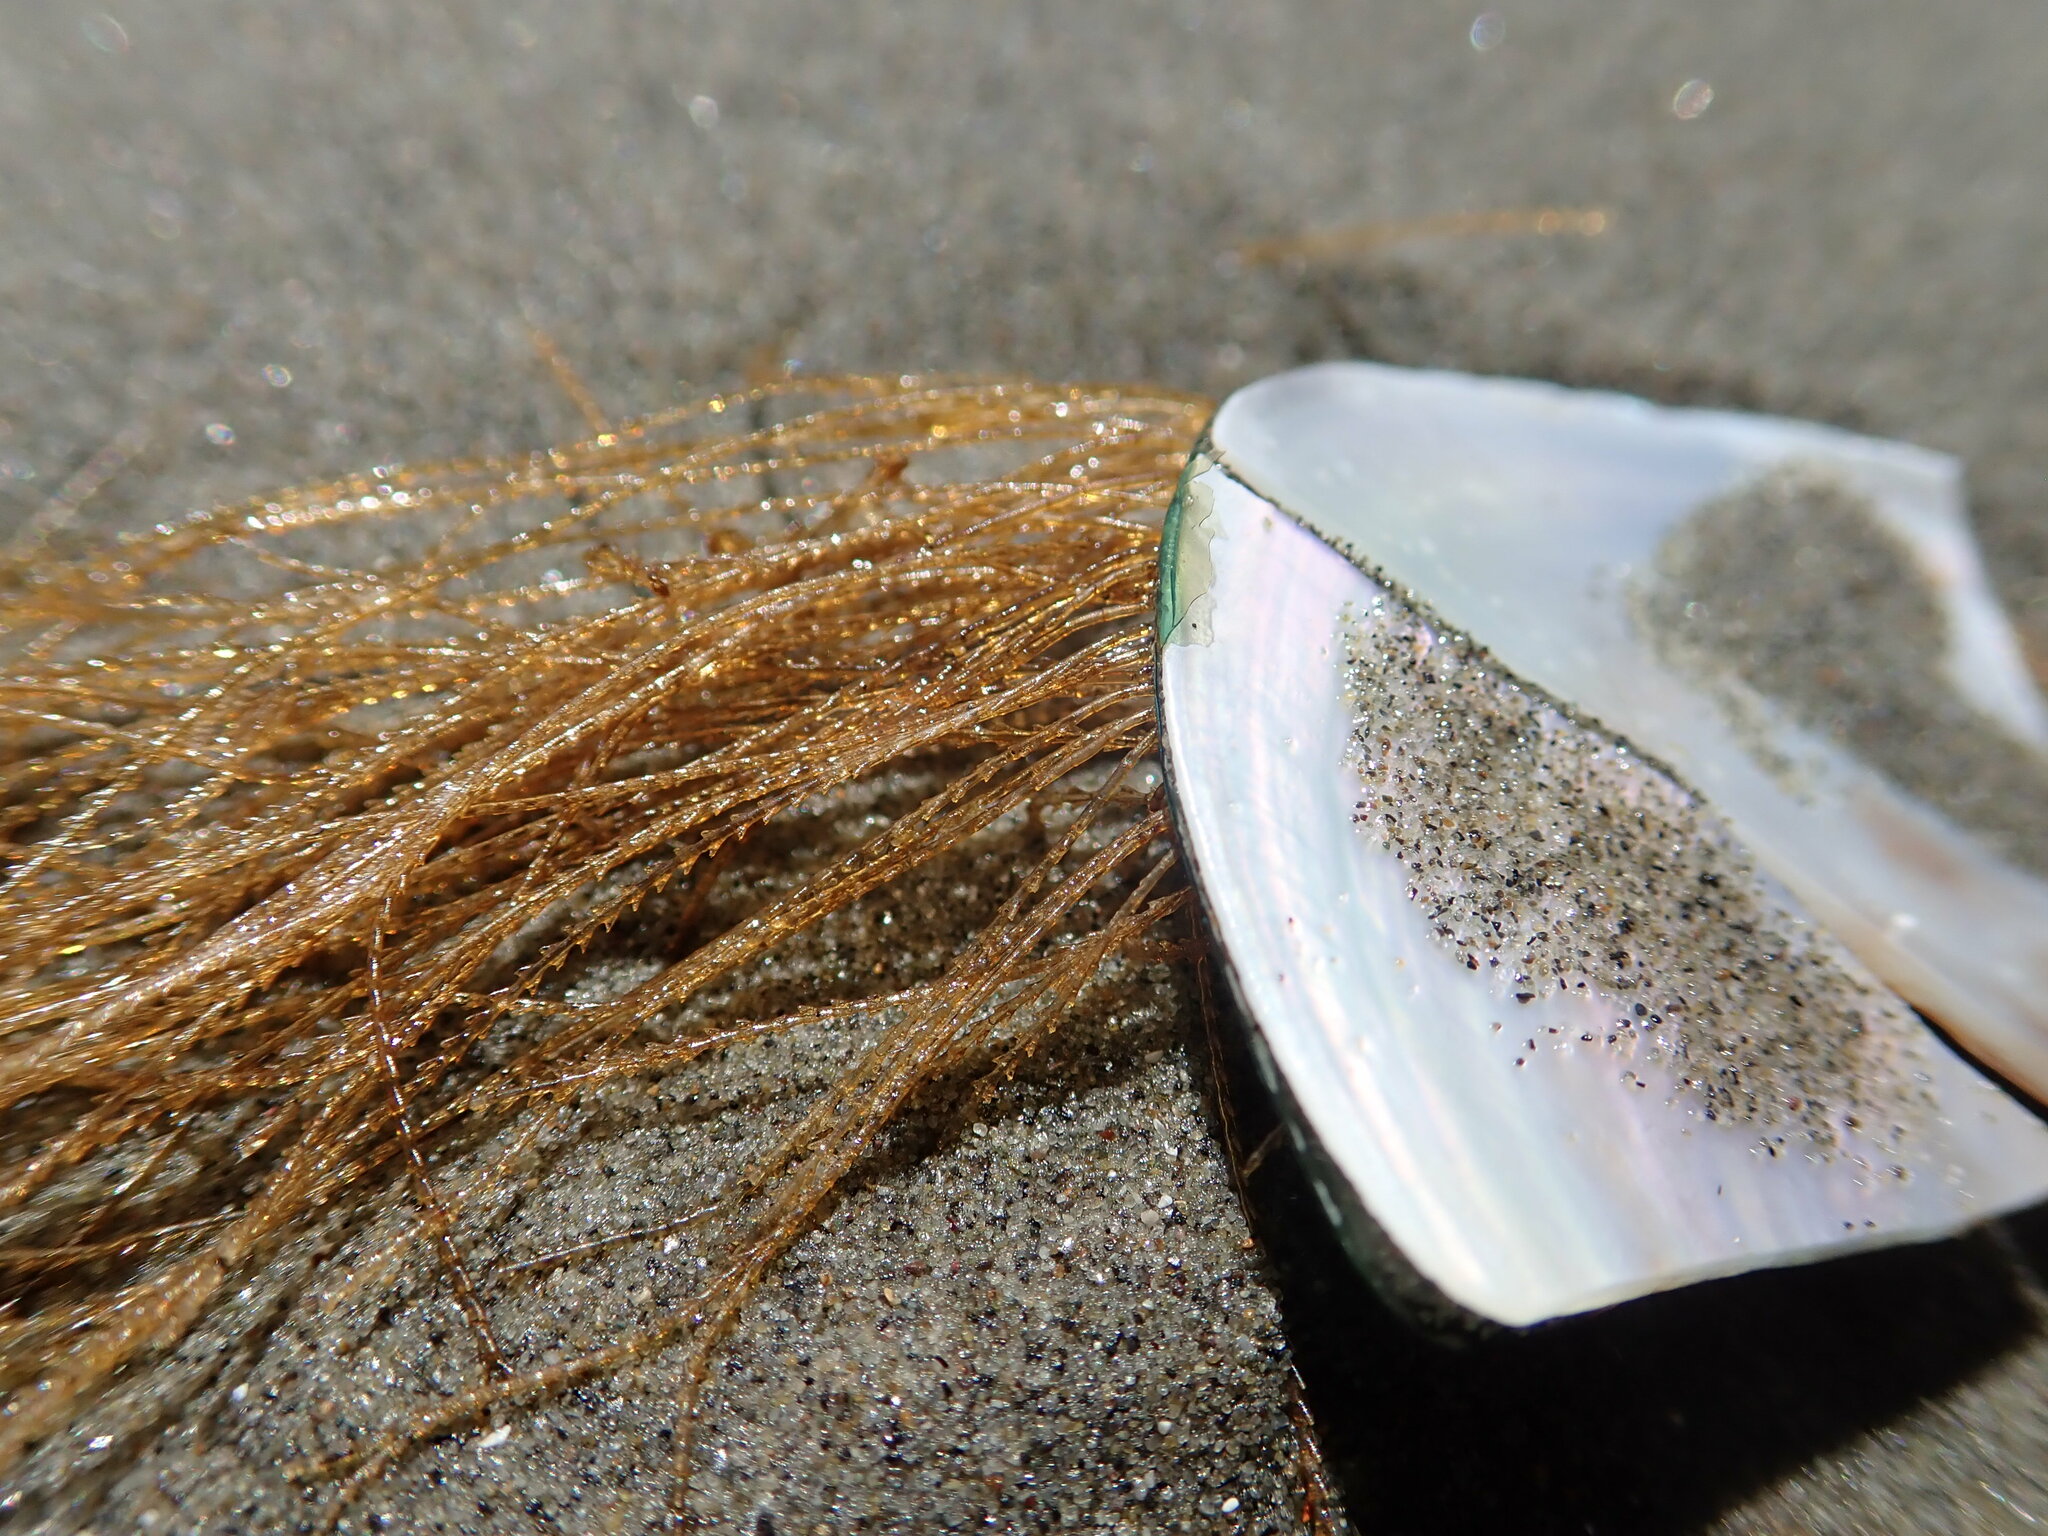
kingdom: Animalia
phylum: Cnidaria
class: Hydrozoa
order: Leptothecata
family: Sertulariidae
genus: Amphisbetia
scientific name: Amphisbetia bispinosa
